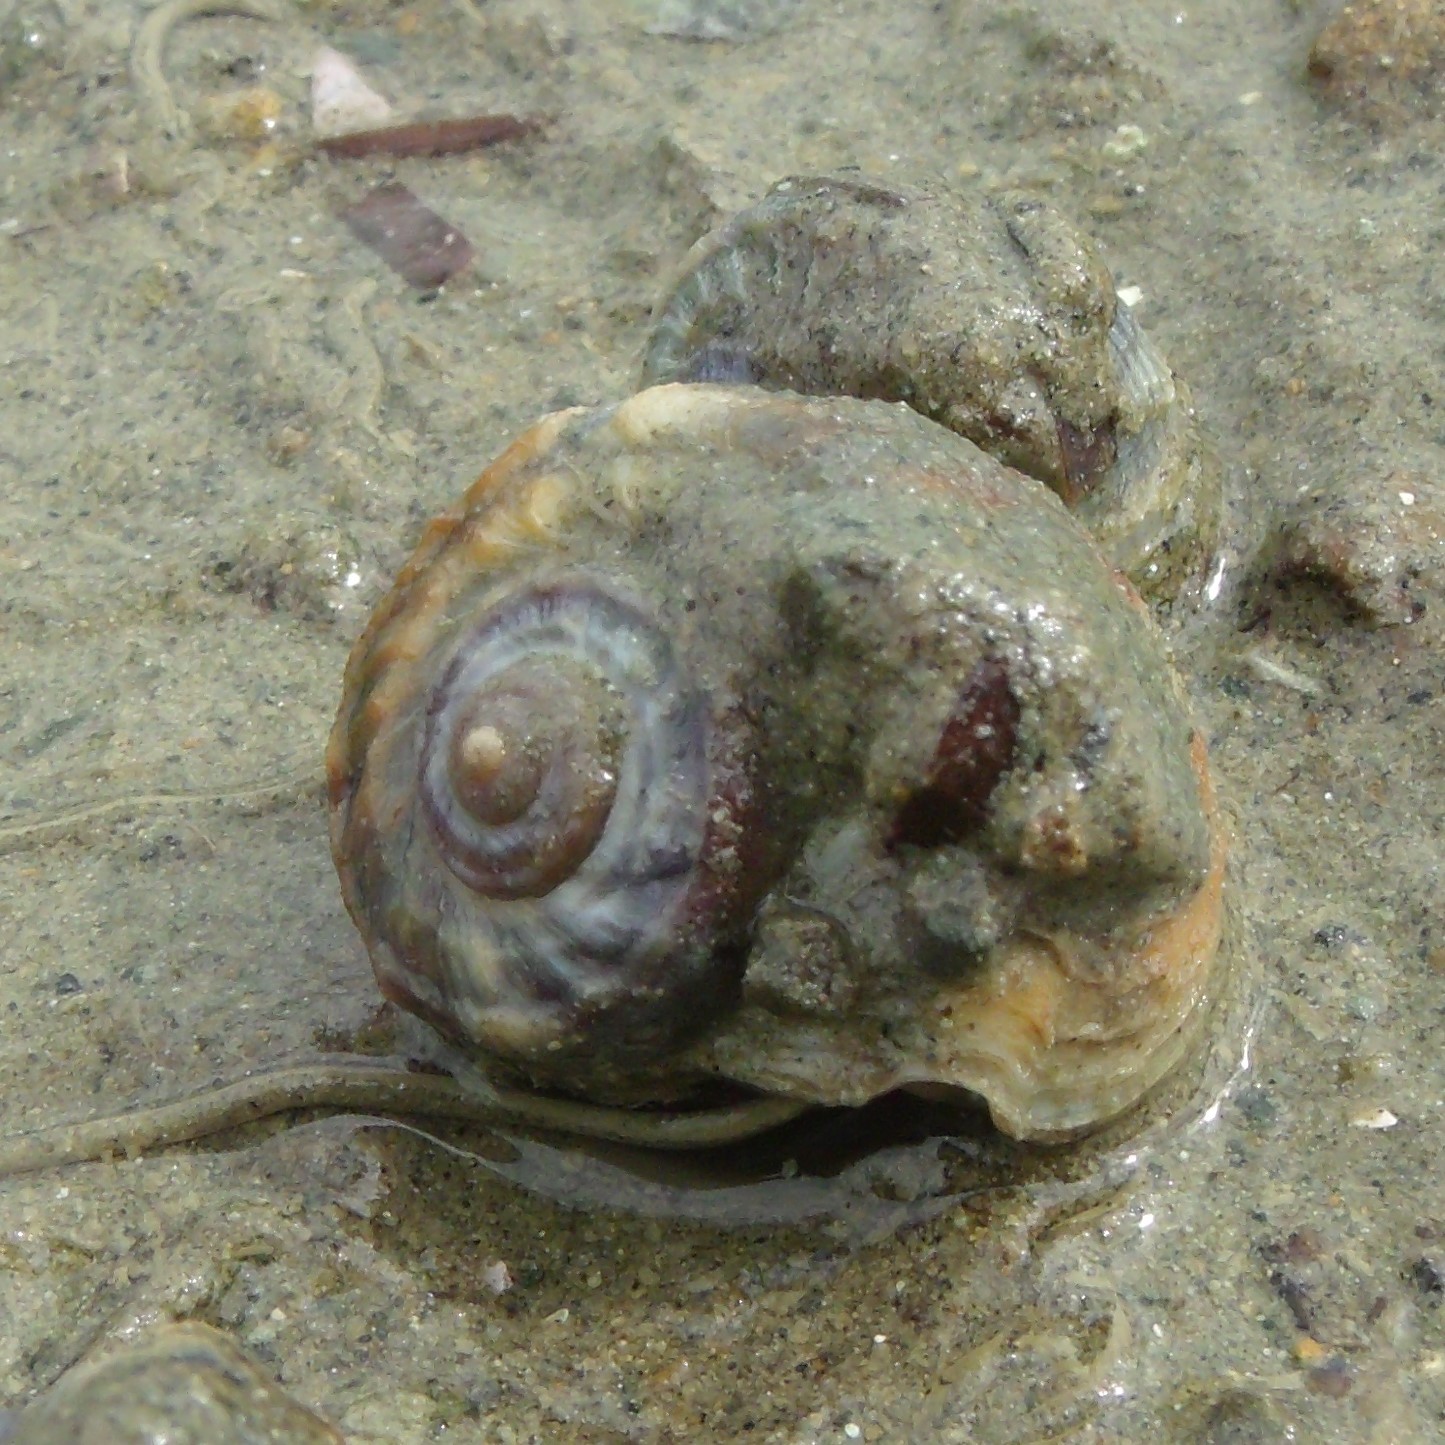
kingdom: Animalia
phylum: Mollusca
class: Gastropoda
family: Amphibolidae
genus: Amphibola
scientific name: Amphibola crenata
